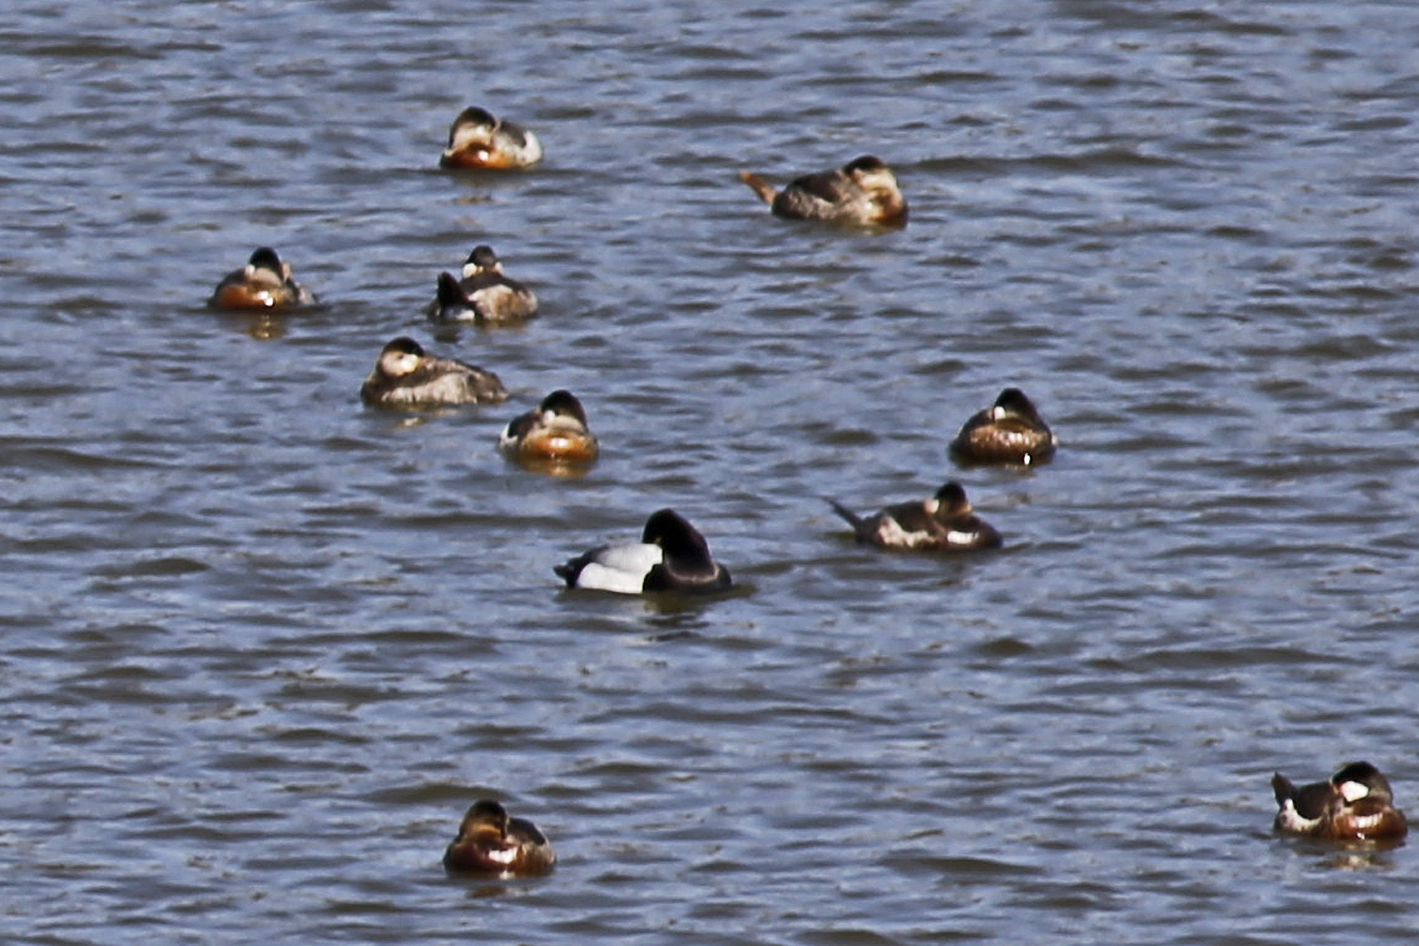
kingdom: Animalia
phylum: Chordata
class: Aves
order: Anseriformes
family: Anatidae
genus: Aythya
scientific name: Aythya affinis
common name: Lesser scaup
